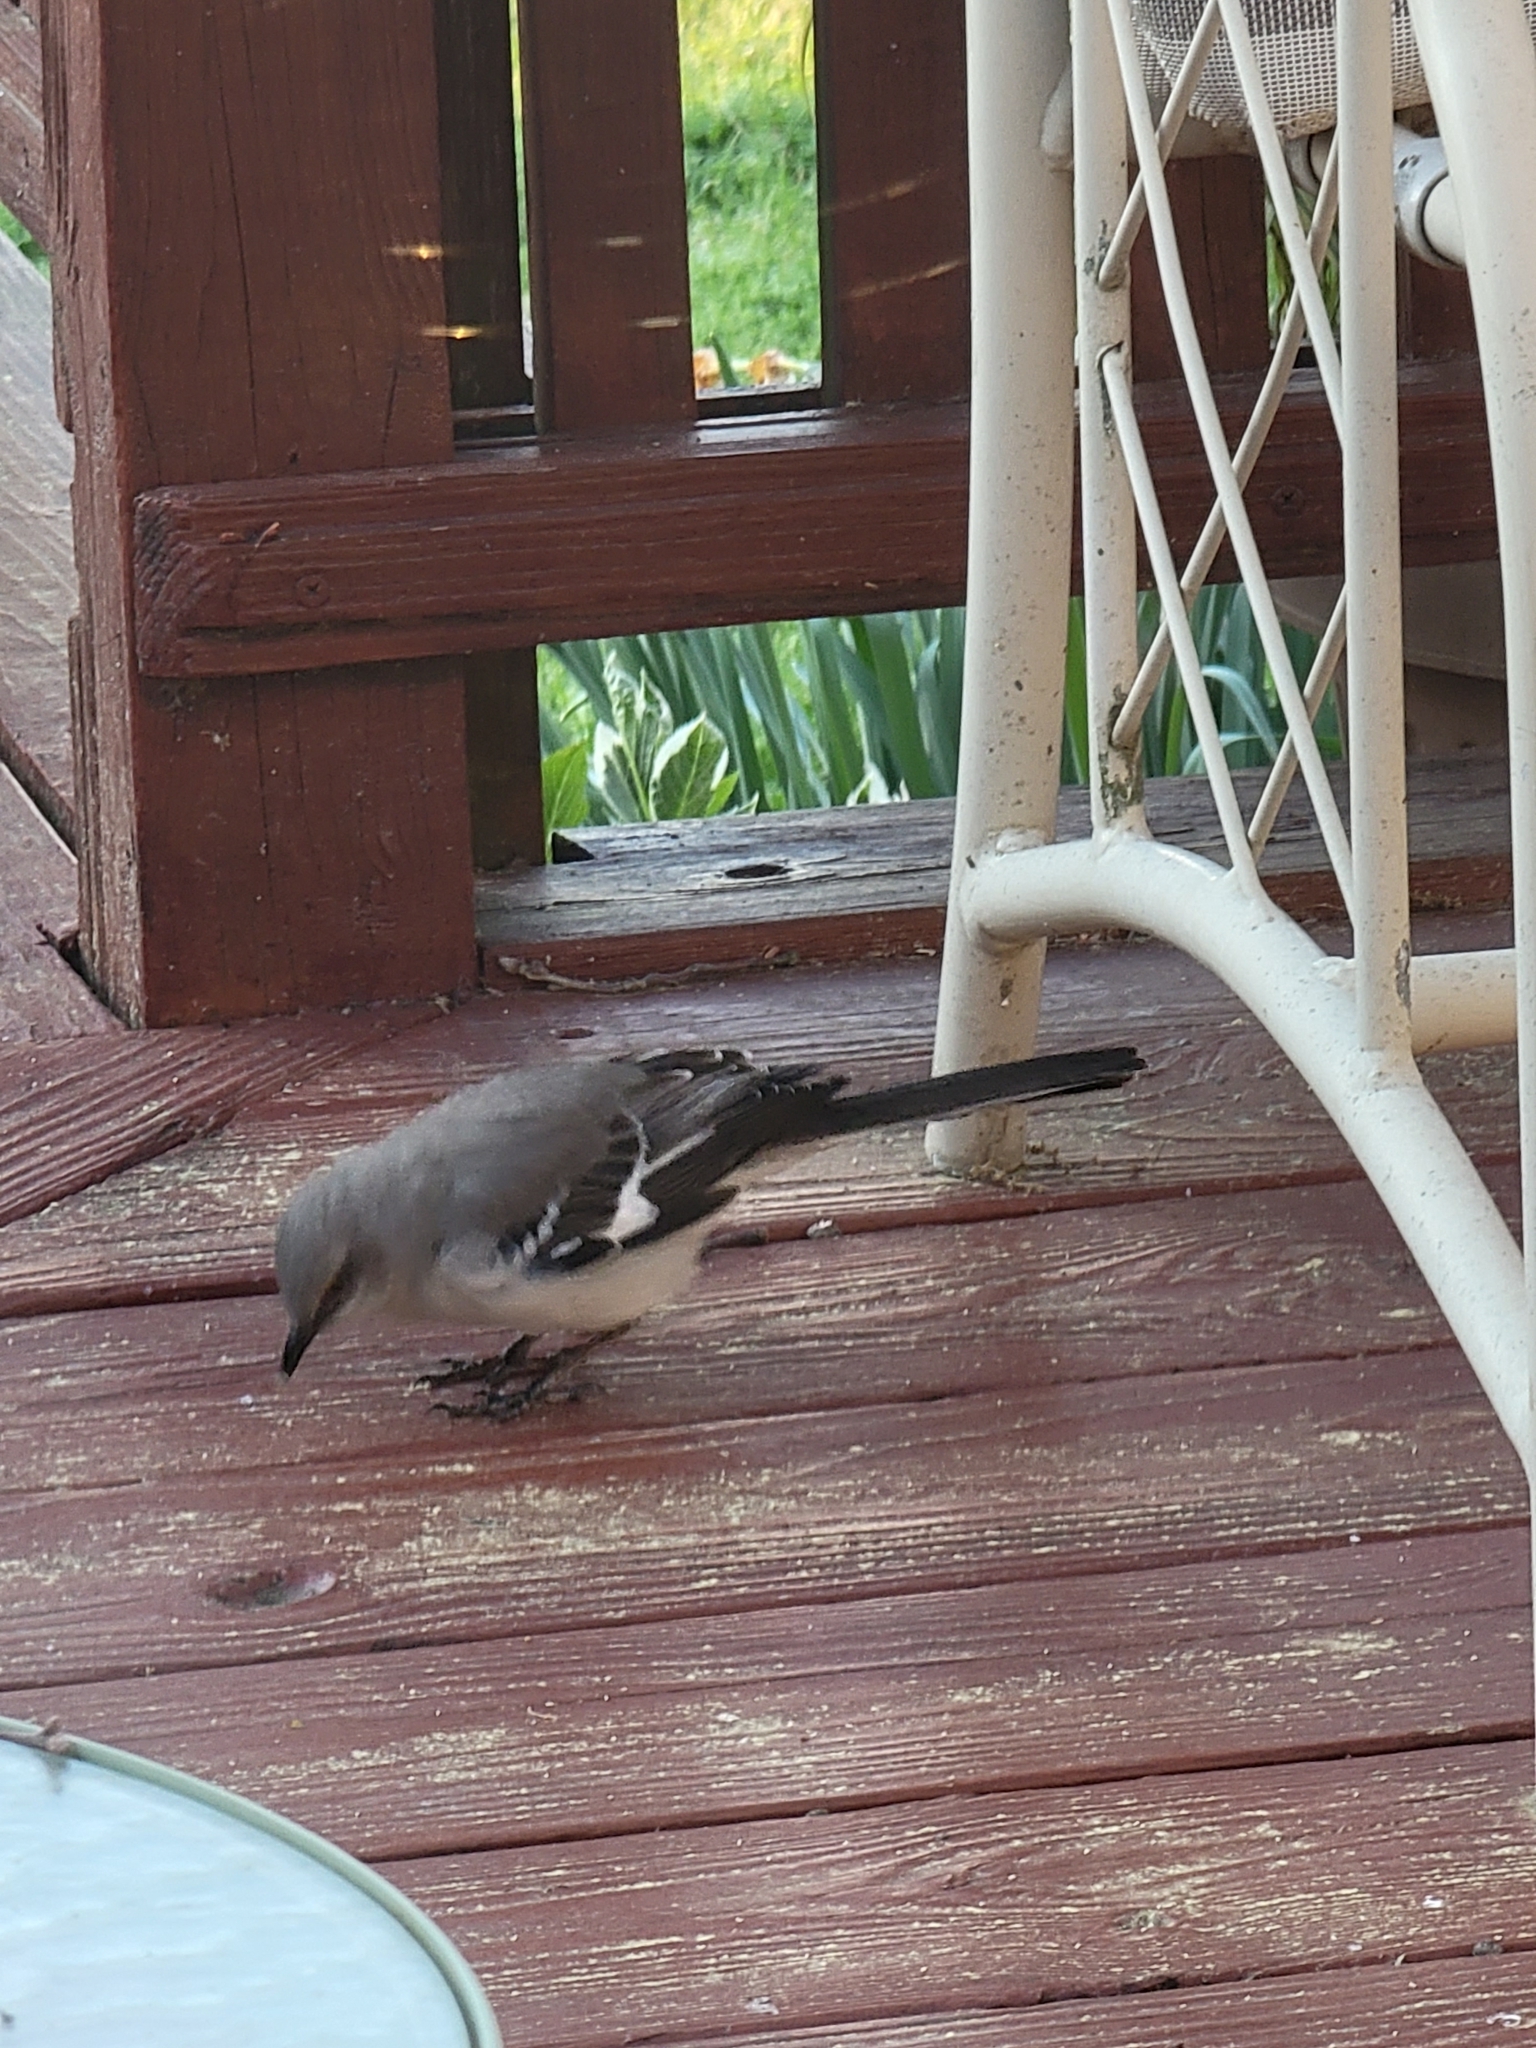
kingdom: Animalia
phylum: Chordata
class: Aves
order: Passeriformes
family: Mimidae
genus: Mimus
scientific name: Mimus polyglottos
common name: Northern mockingbird
